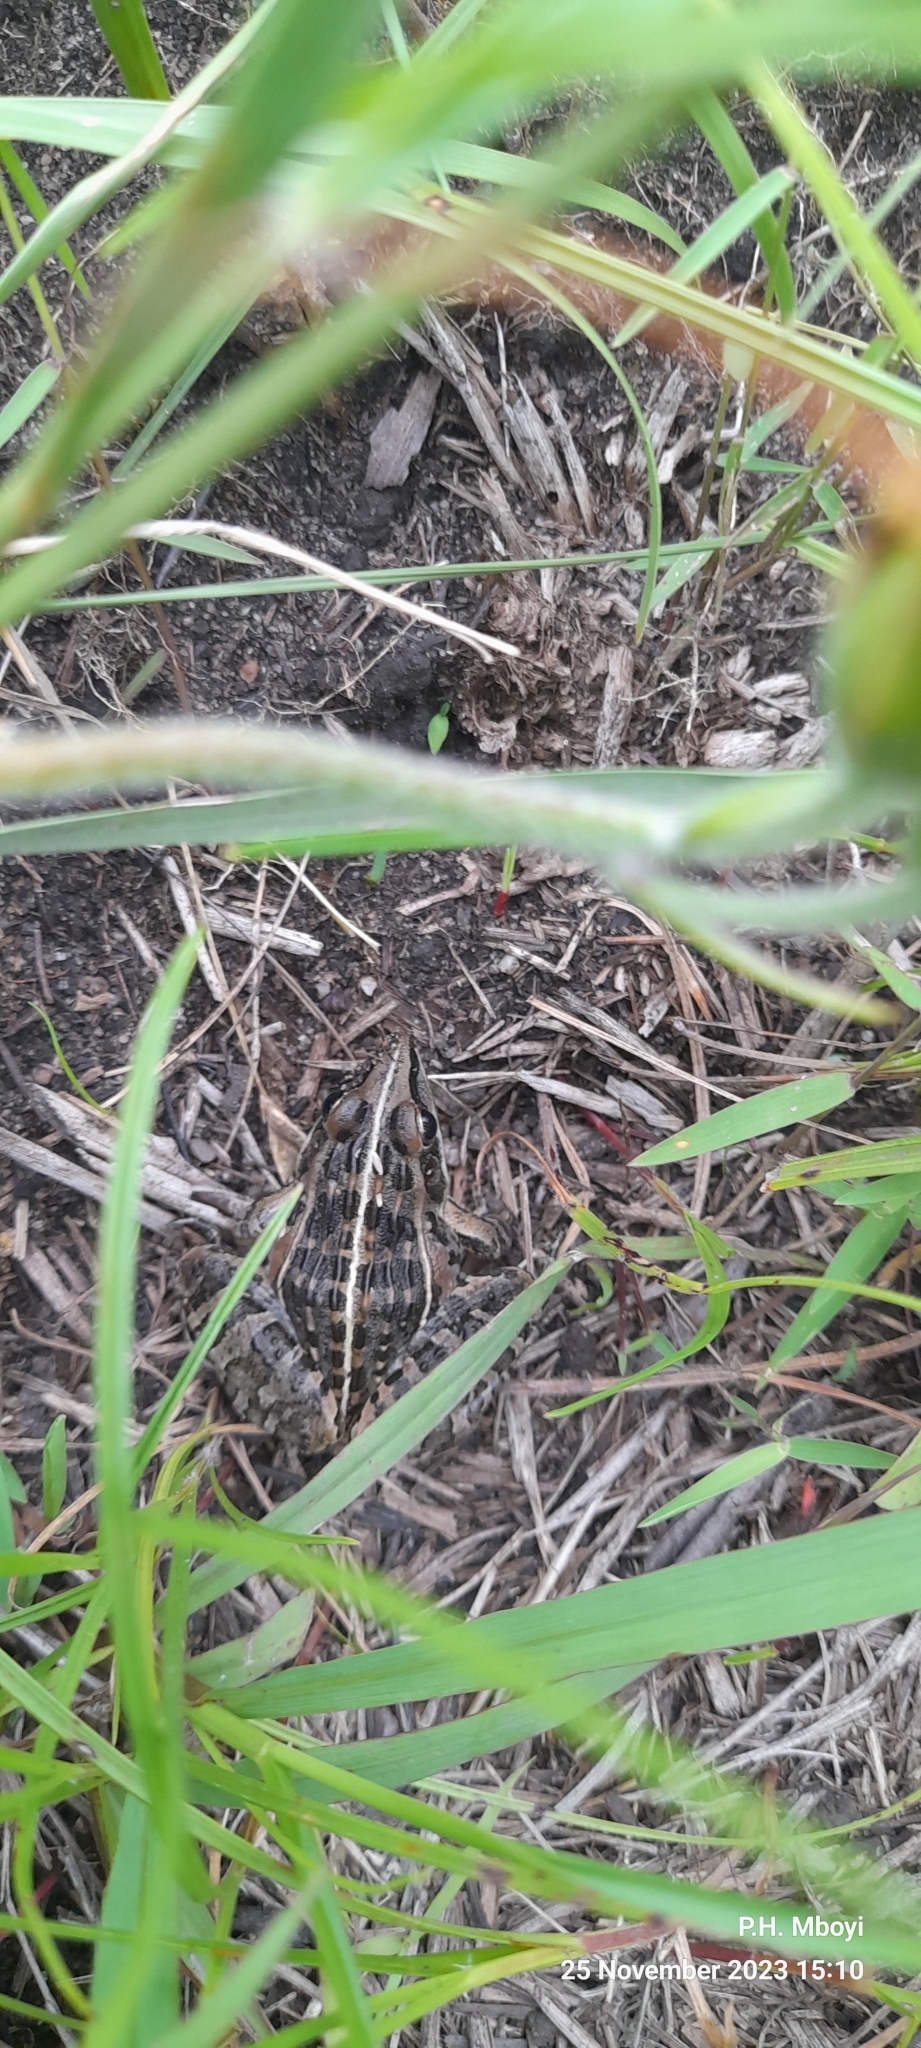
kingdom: Animalia
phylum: Chordata
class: Amphibia
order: Anura
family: Ptychadenidae
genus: Ptychadena
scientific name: Ptychadena oxyrhynchus
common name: Sharp-nosed ridged frog
